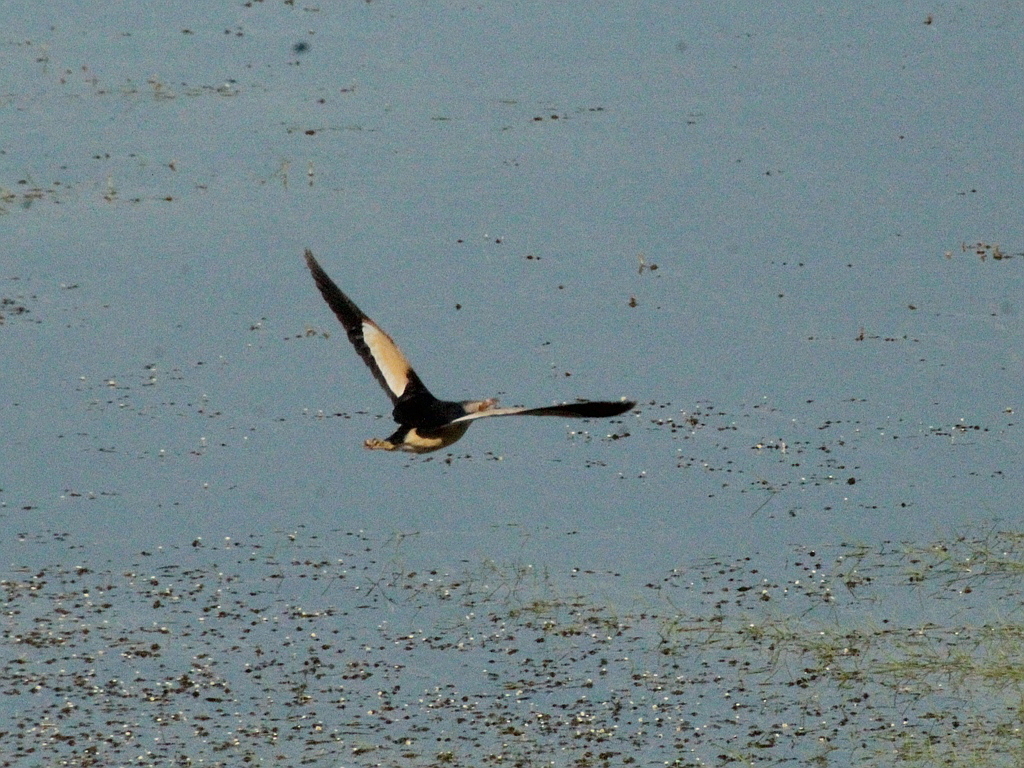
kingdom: Animalia
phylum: Chordata
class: Aves
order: Pelecaniformes
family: Ardeidae
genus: Ixobrychus
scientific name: Ixobrychus minutus
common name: Little bittern
